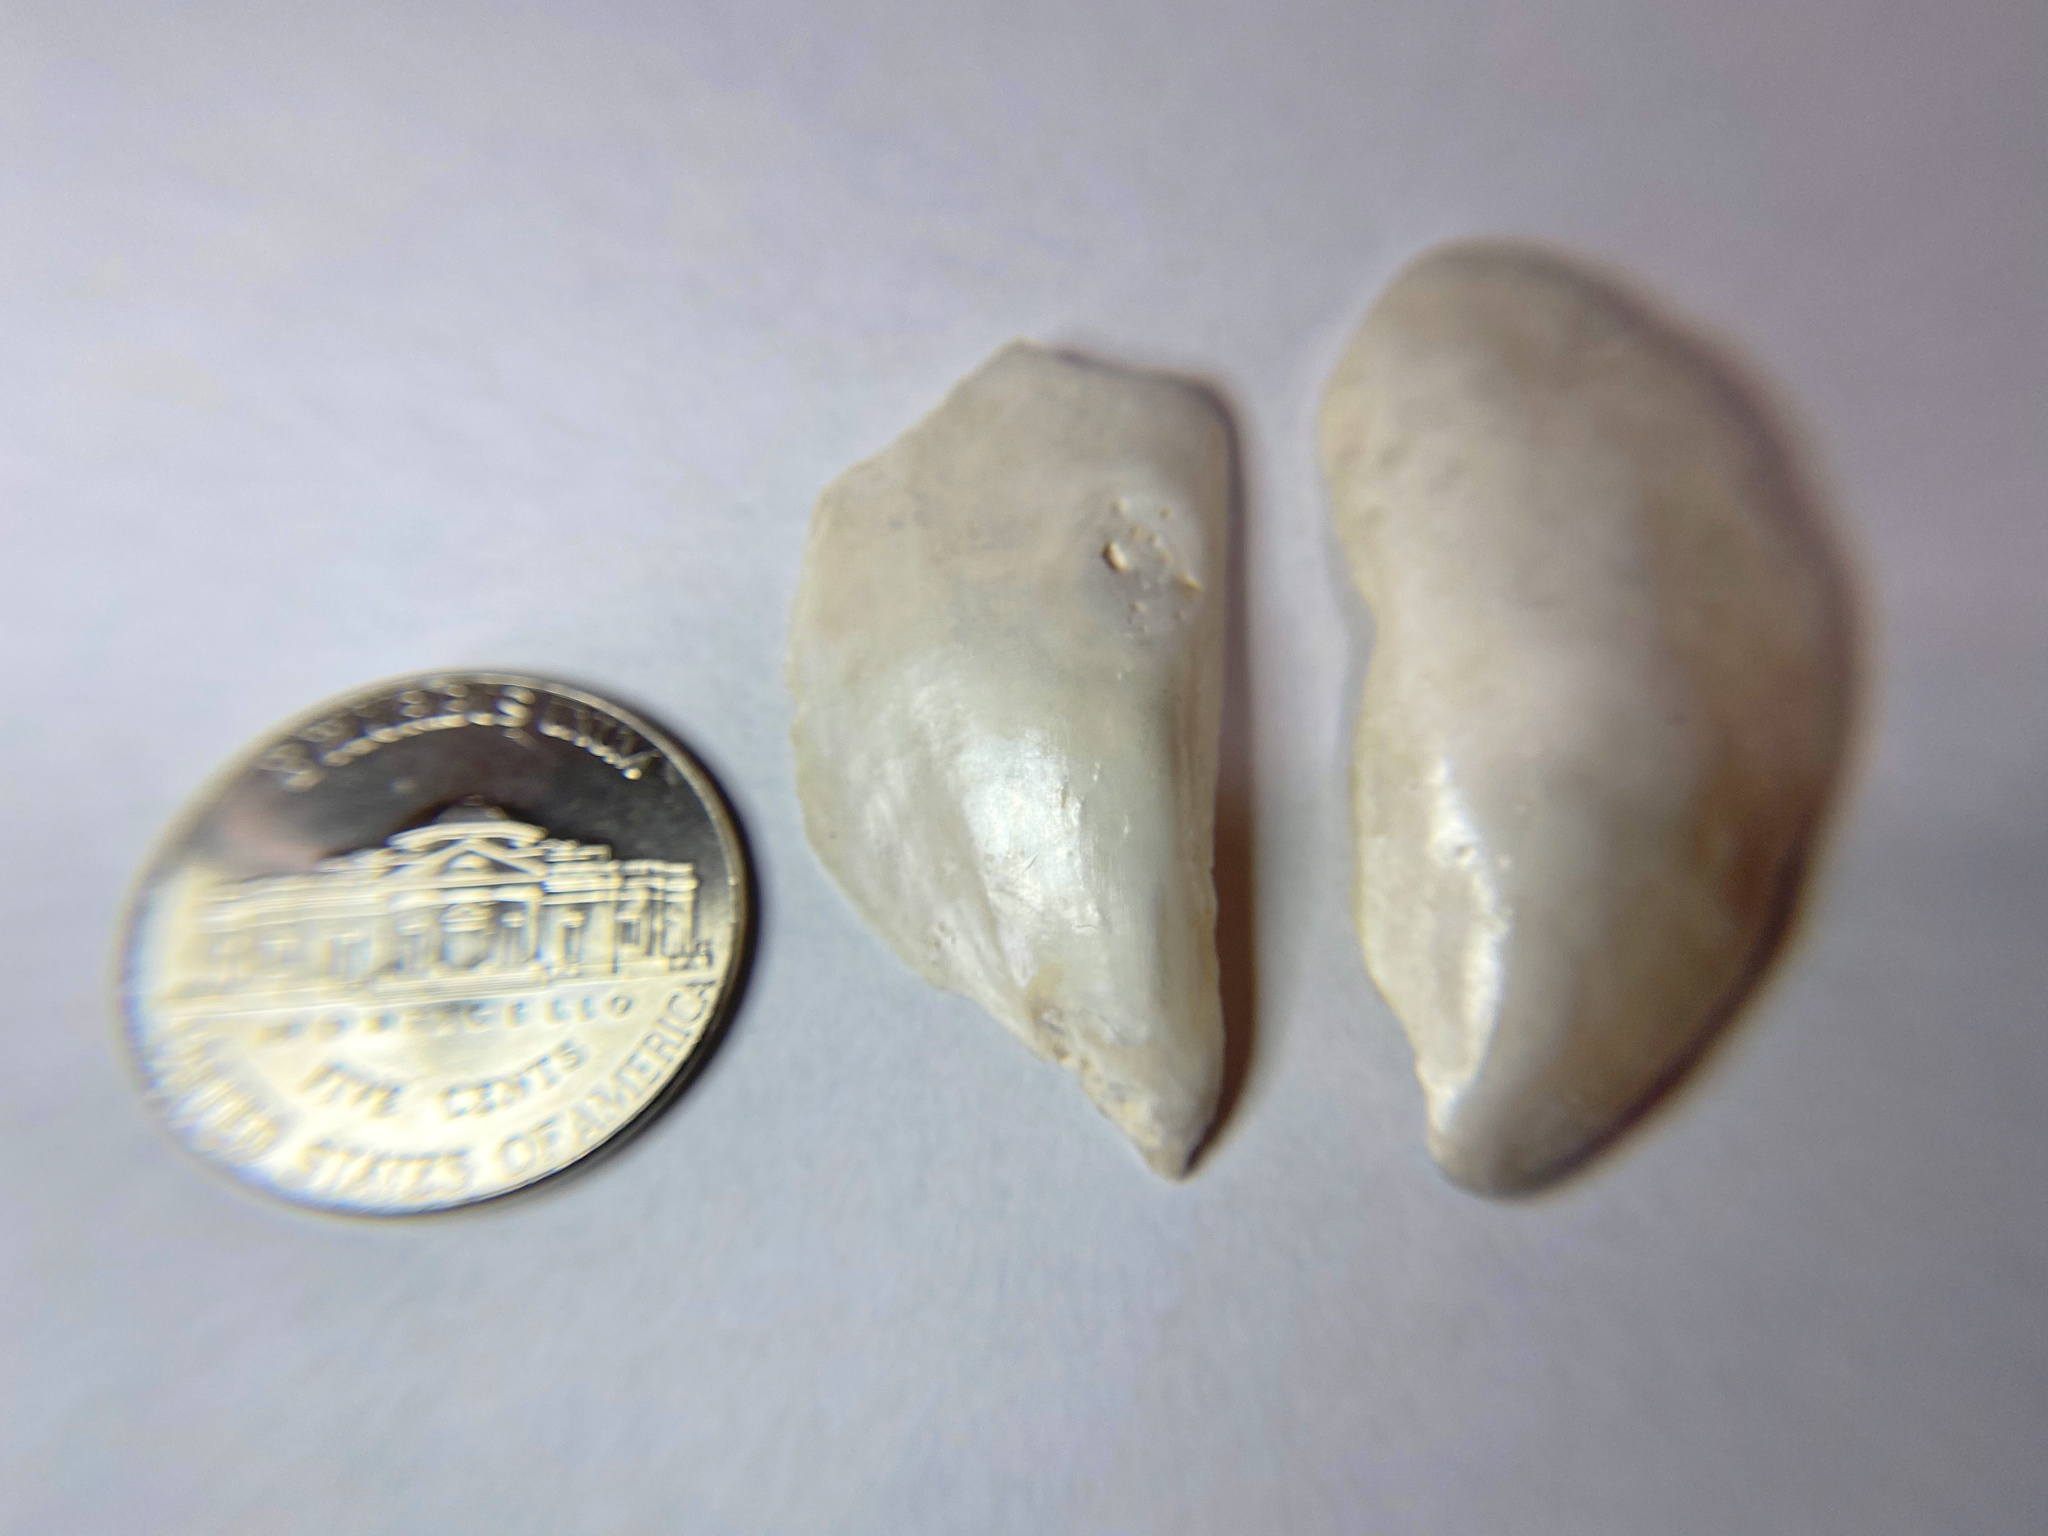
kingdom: Animalia
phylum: Mollusca
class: Bivalvia
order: Mytilida
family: Mytilidae
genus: Mytilus
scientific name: Mytilus edulis
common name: Blue mussel
